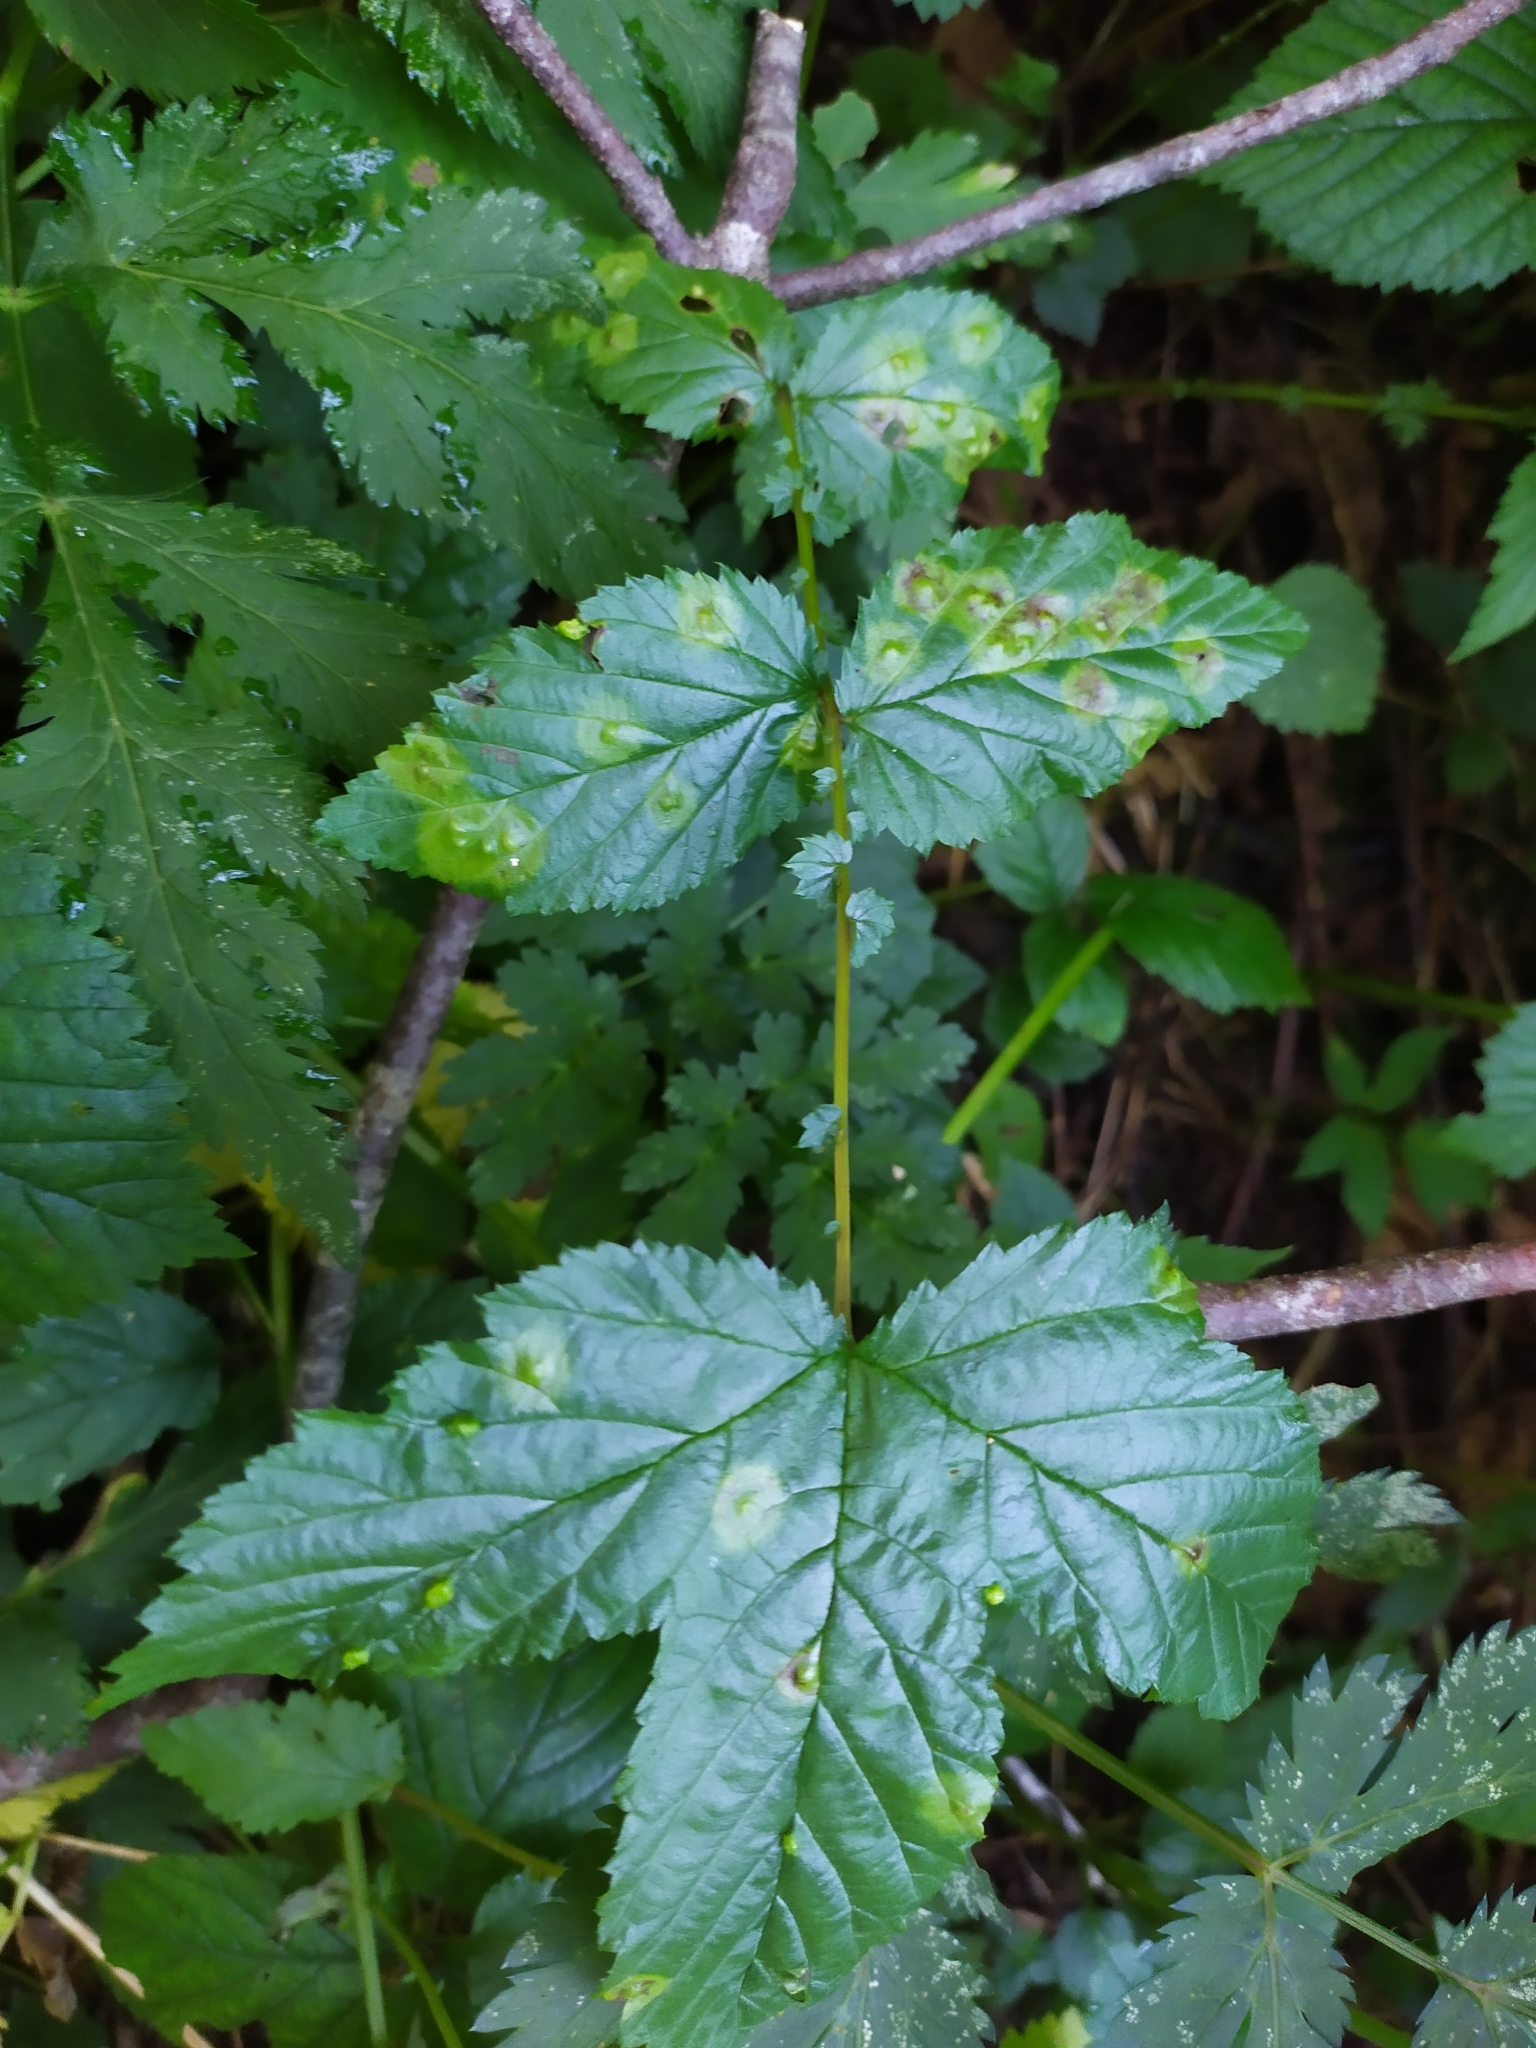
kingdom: Animalia
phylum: Arthropoda
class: Insecta
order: Diptera
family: Cecidomyiidae
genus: Dasineura
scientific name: Dasineura pustulans
